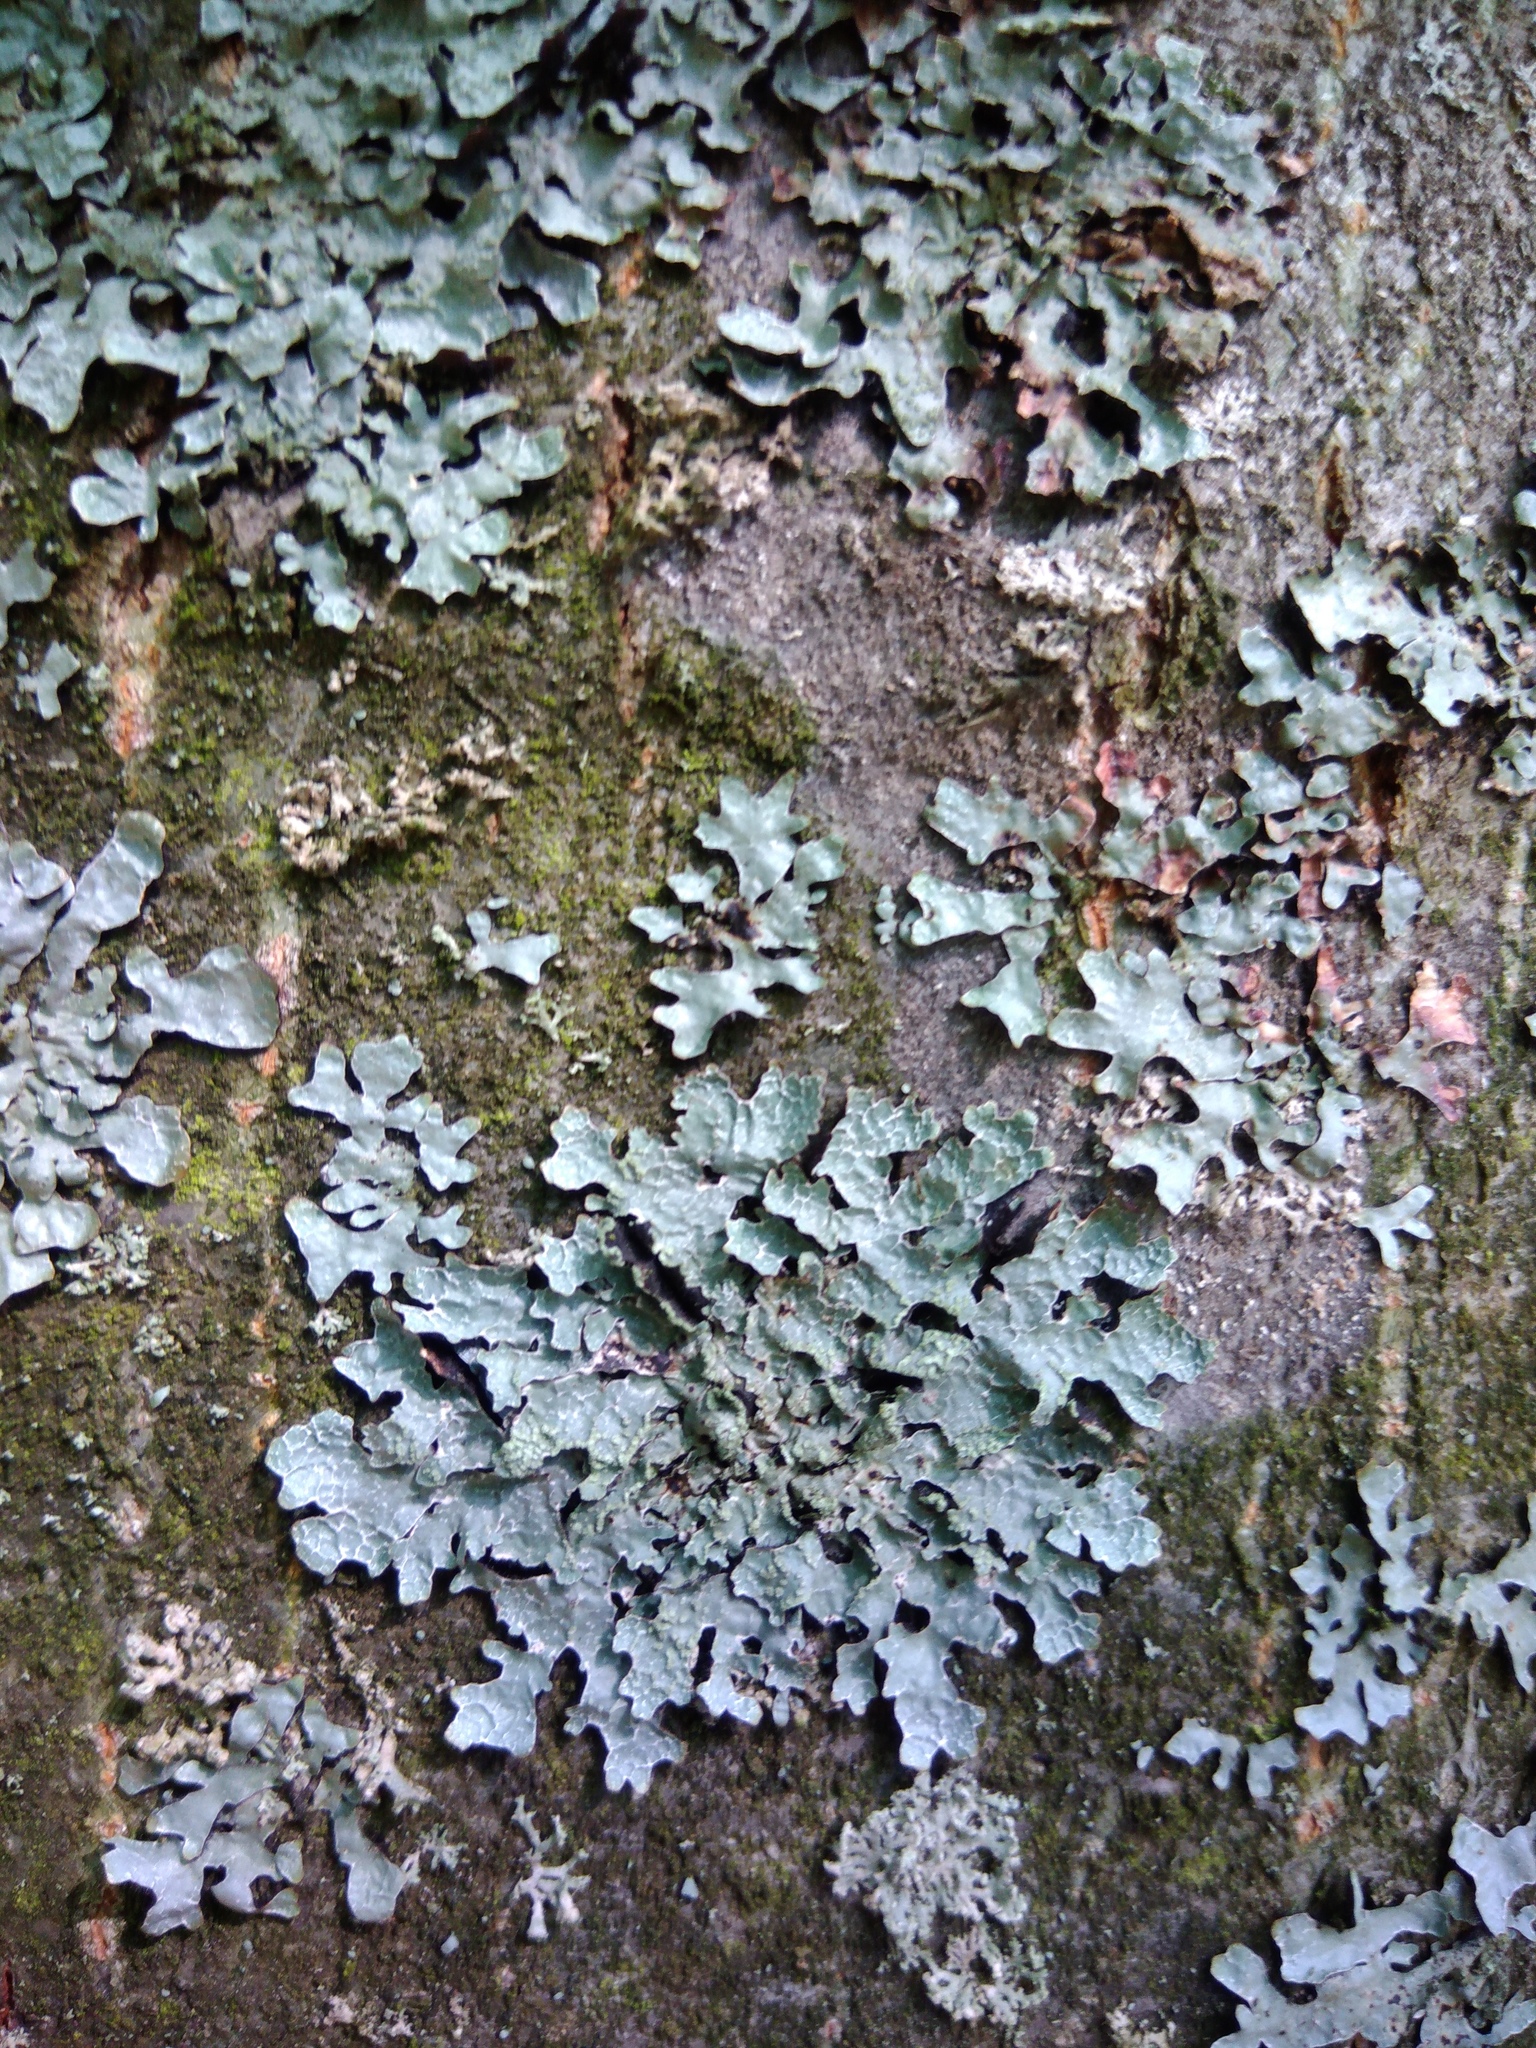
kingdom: Fungi
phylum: Ascomycota
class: Lecanoromycetes
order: Lecanorales
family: Parmeliaceae
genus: Parmelia
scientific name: Parmelia sulcata
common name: Netted shield lichen
